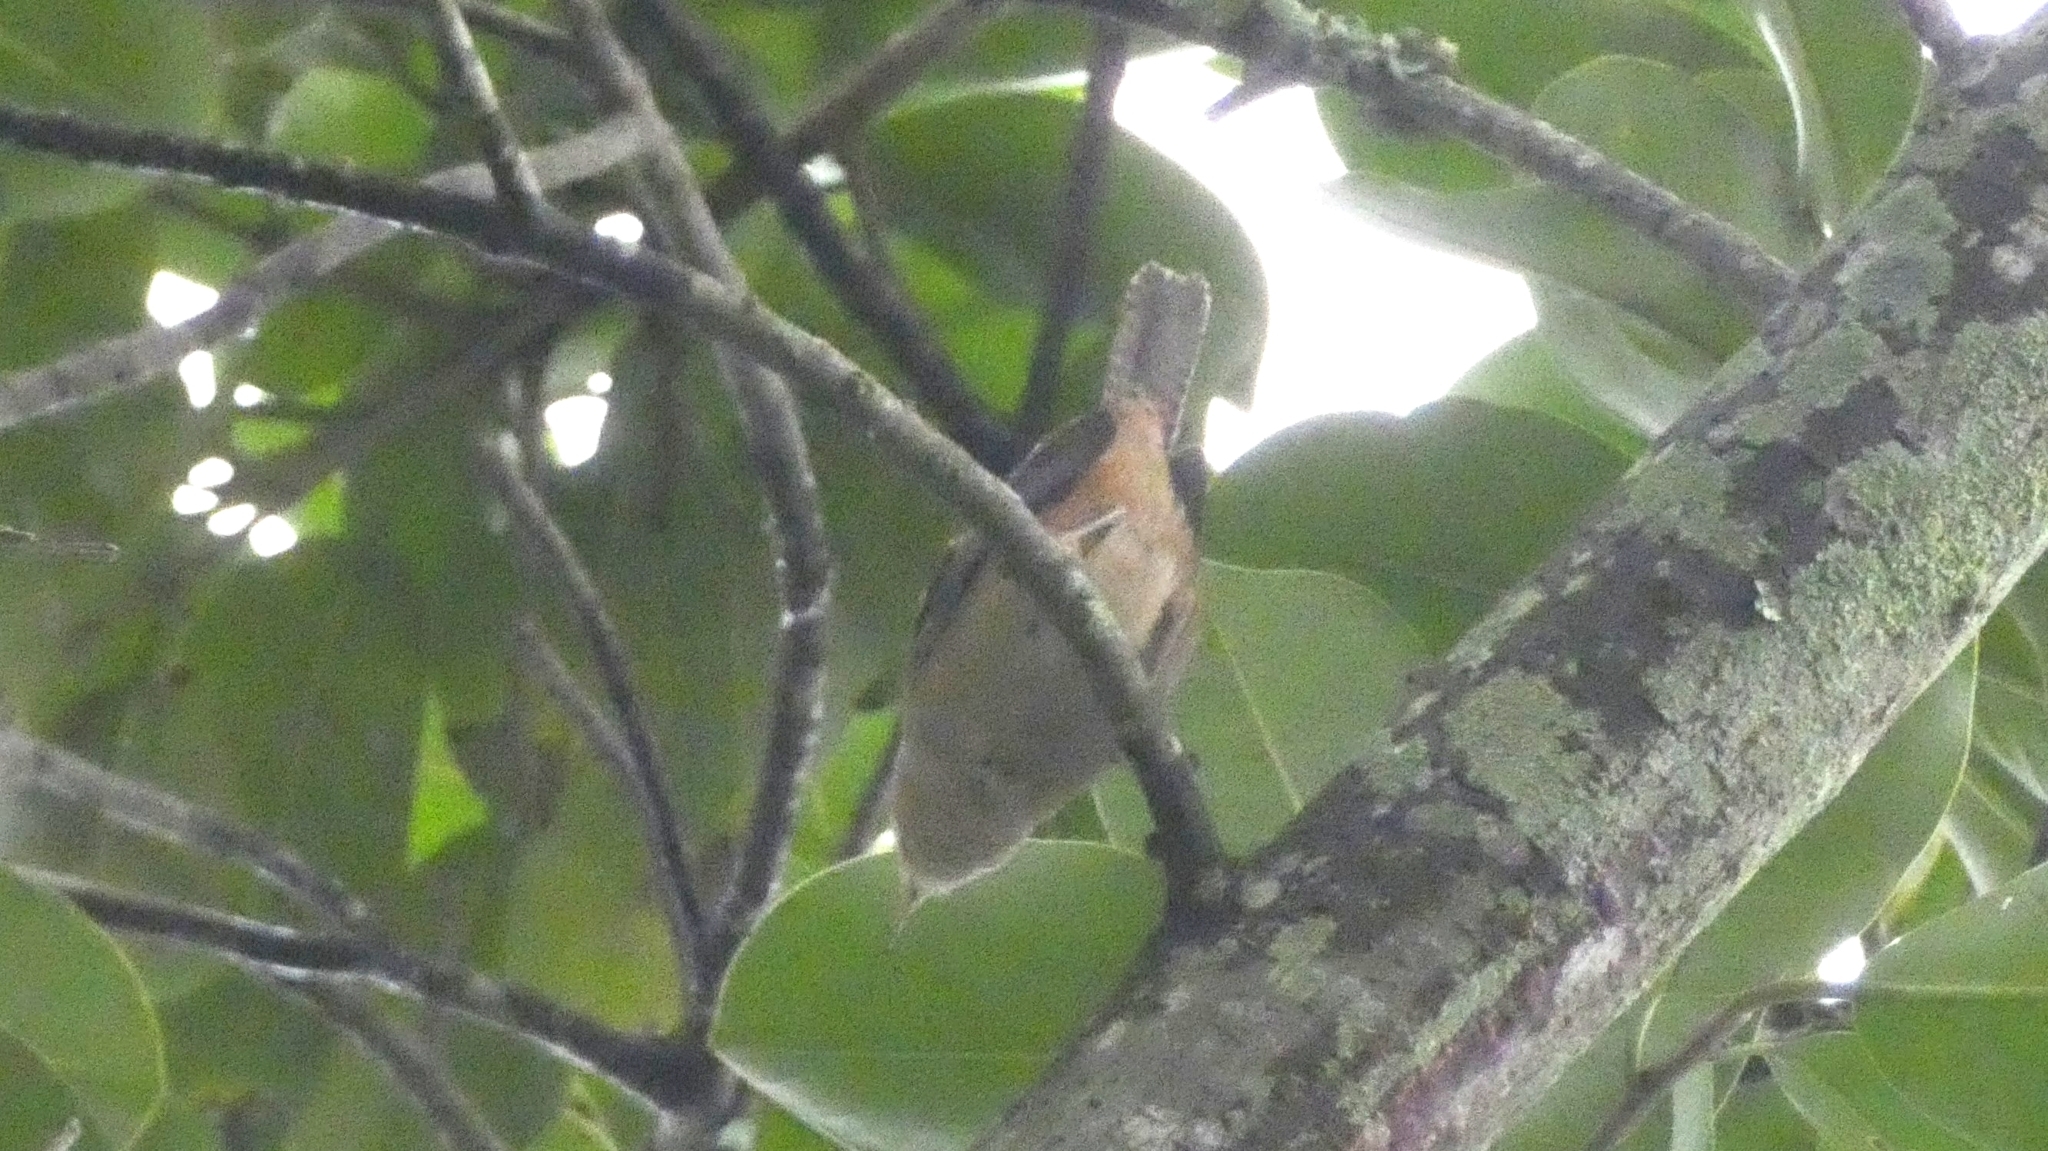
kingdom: Animalia
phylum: Chordata
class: Aves
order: Passeriformes
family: Troglodytidae
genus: Troglodytes
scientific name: Troglodytes aedon
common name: House wren
